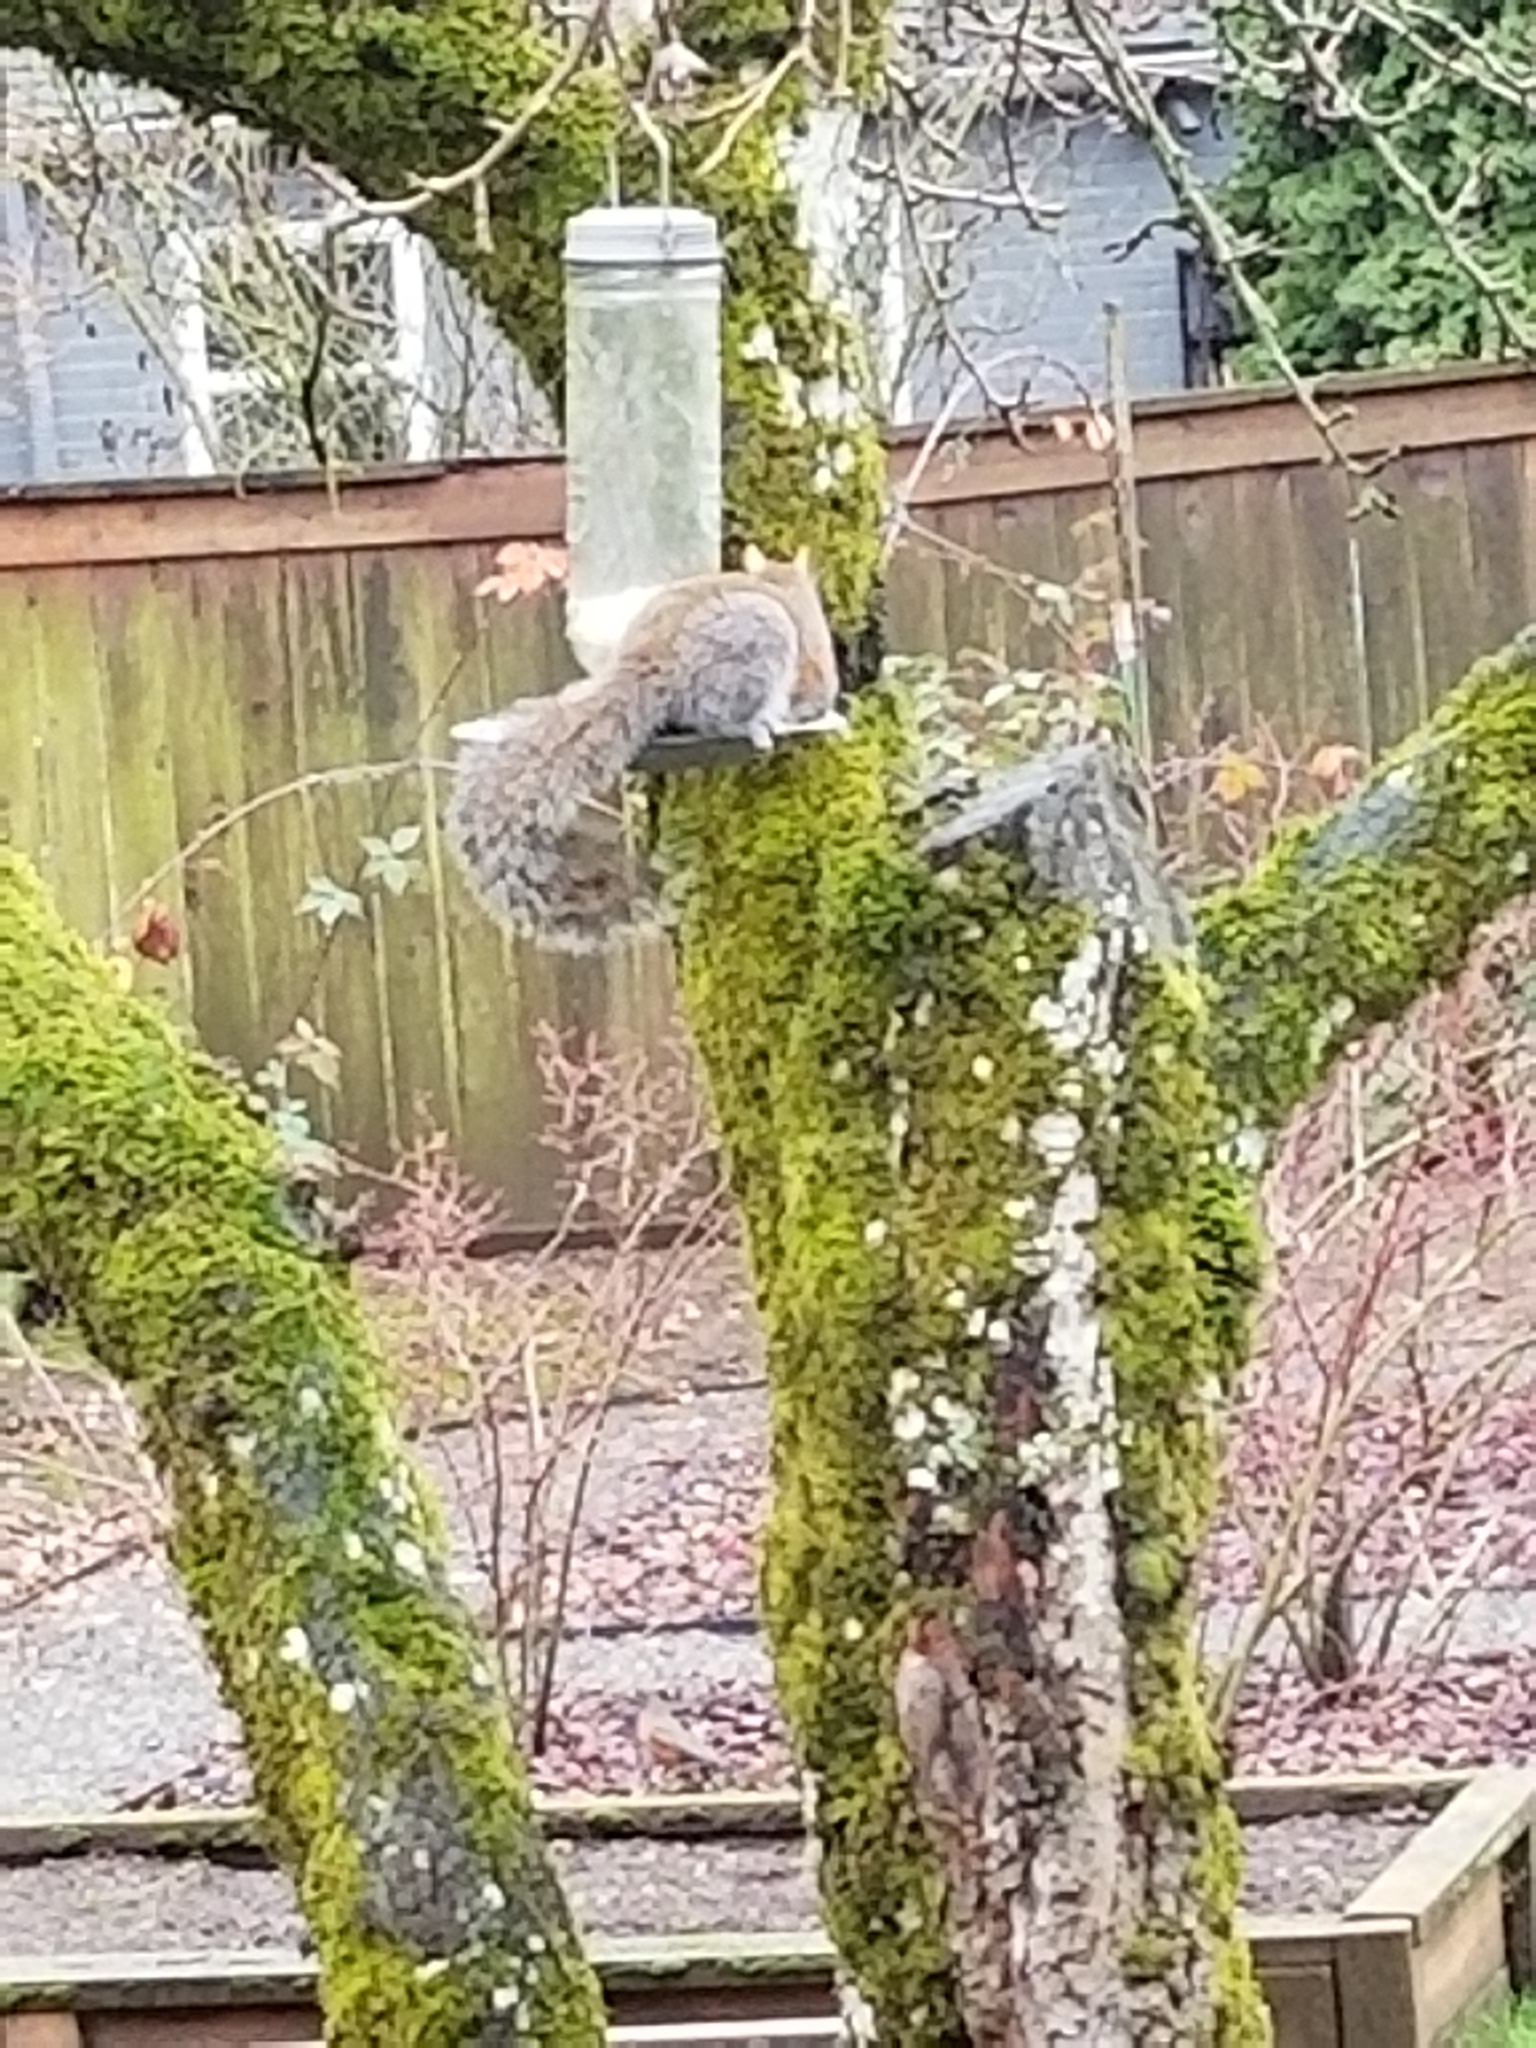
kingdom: Animalia
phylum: Chordata
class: Mammalia
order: Rodentia
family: Sciuridae
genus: Sciurus
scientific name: Sciurus carolinensis
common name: Eastern gray squirrel
